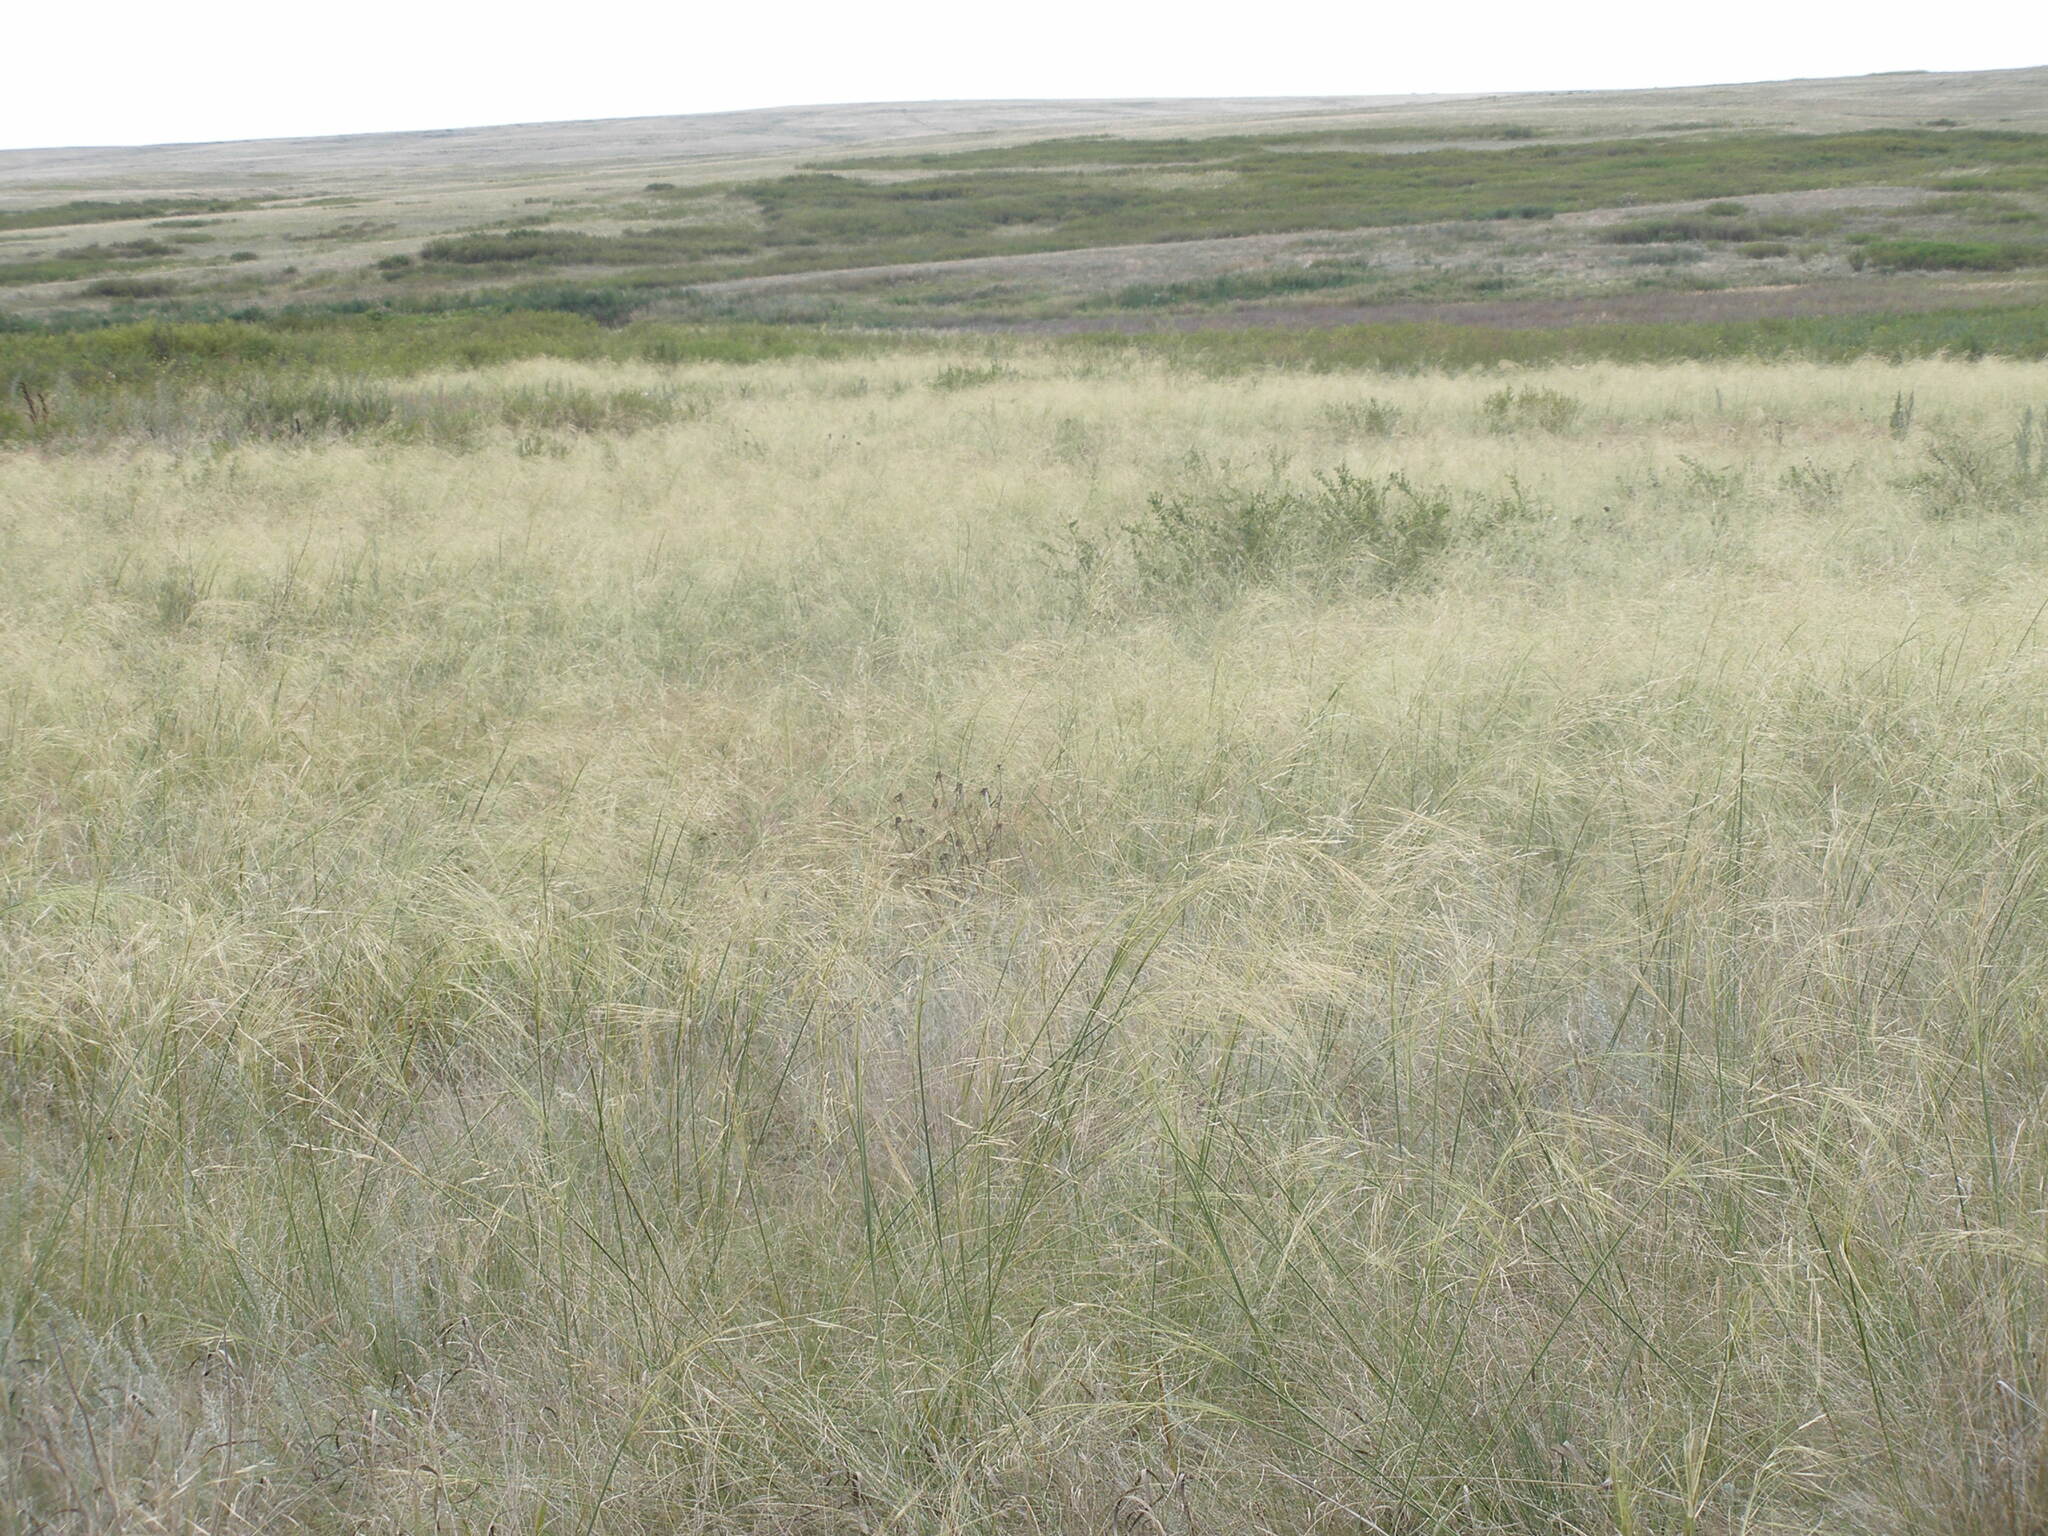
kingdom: Plantae
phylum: Tracheophyta
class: Liliopsida
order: Poales
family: Poaceae
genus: Stipa
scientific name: Stipa capillata
